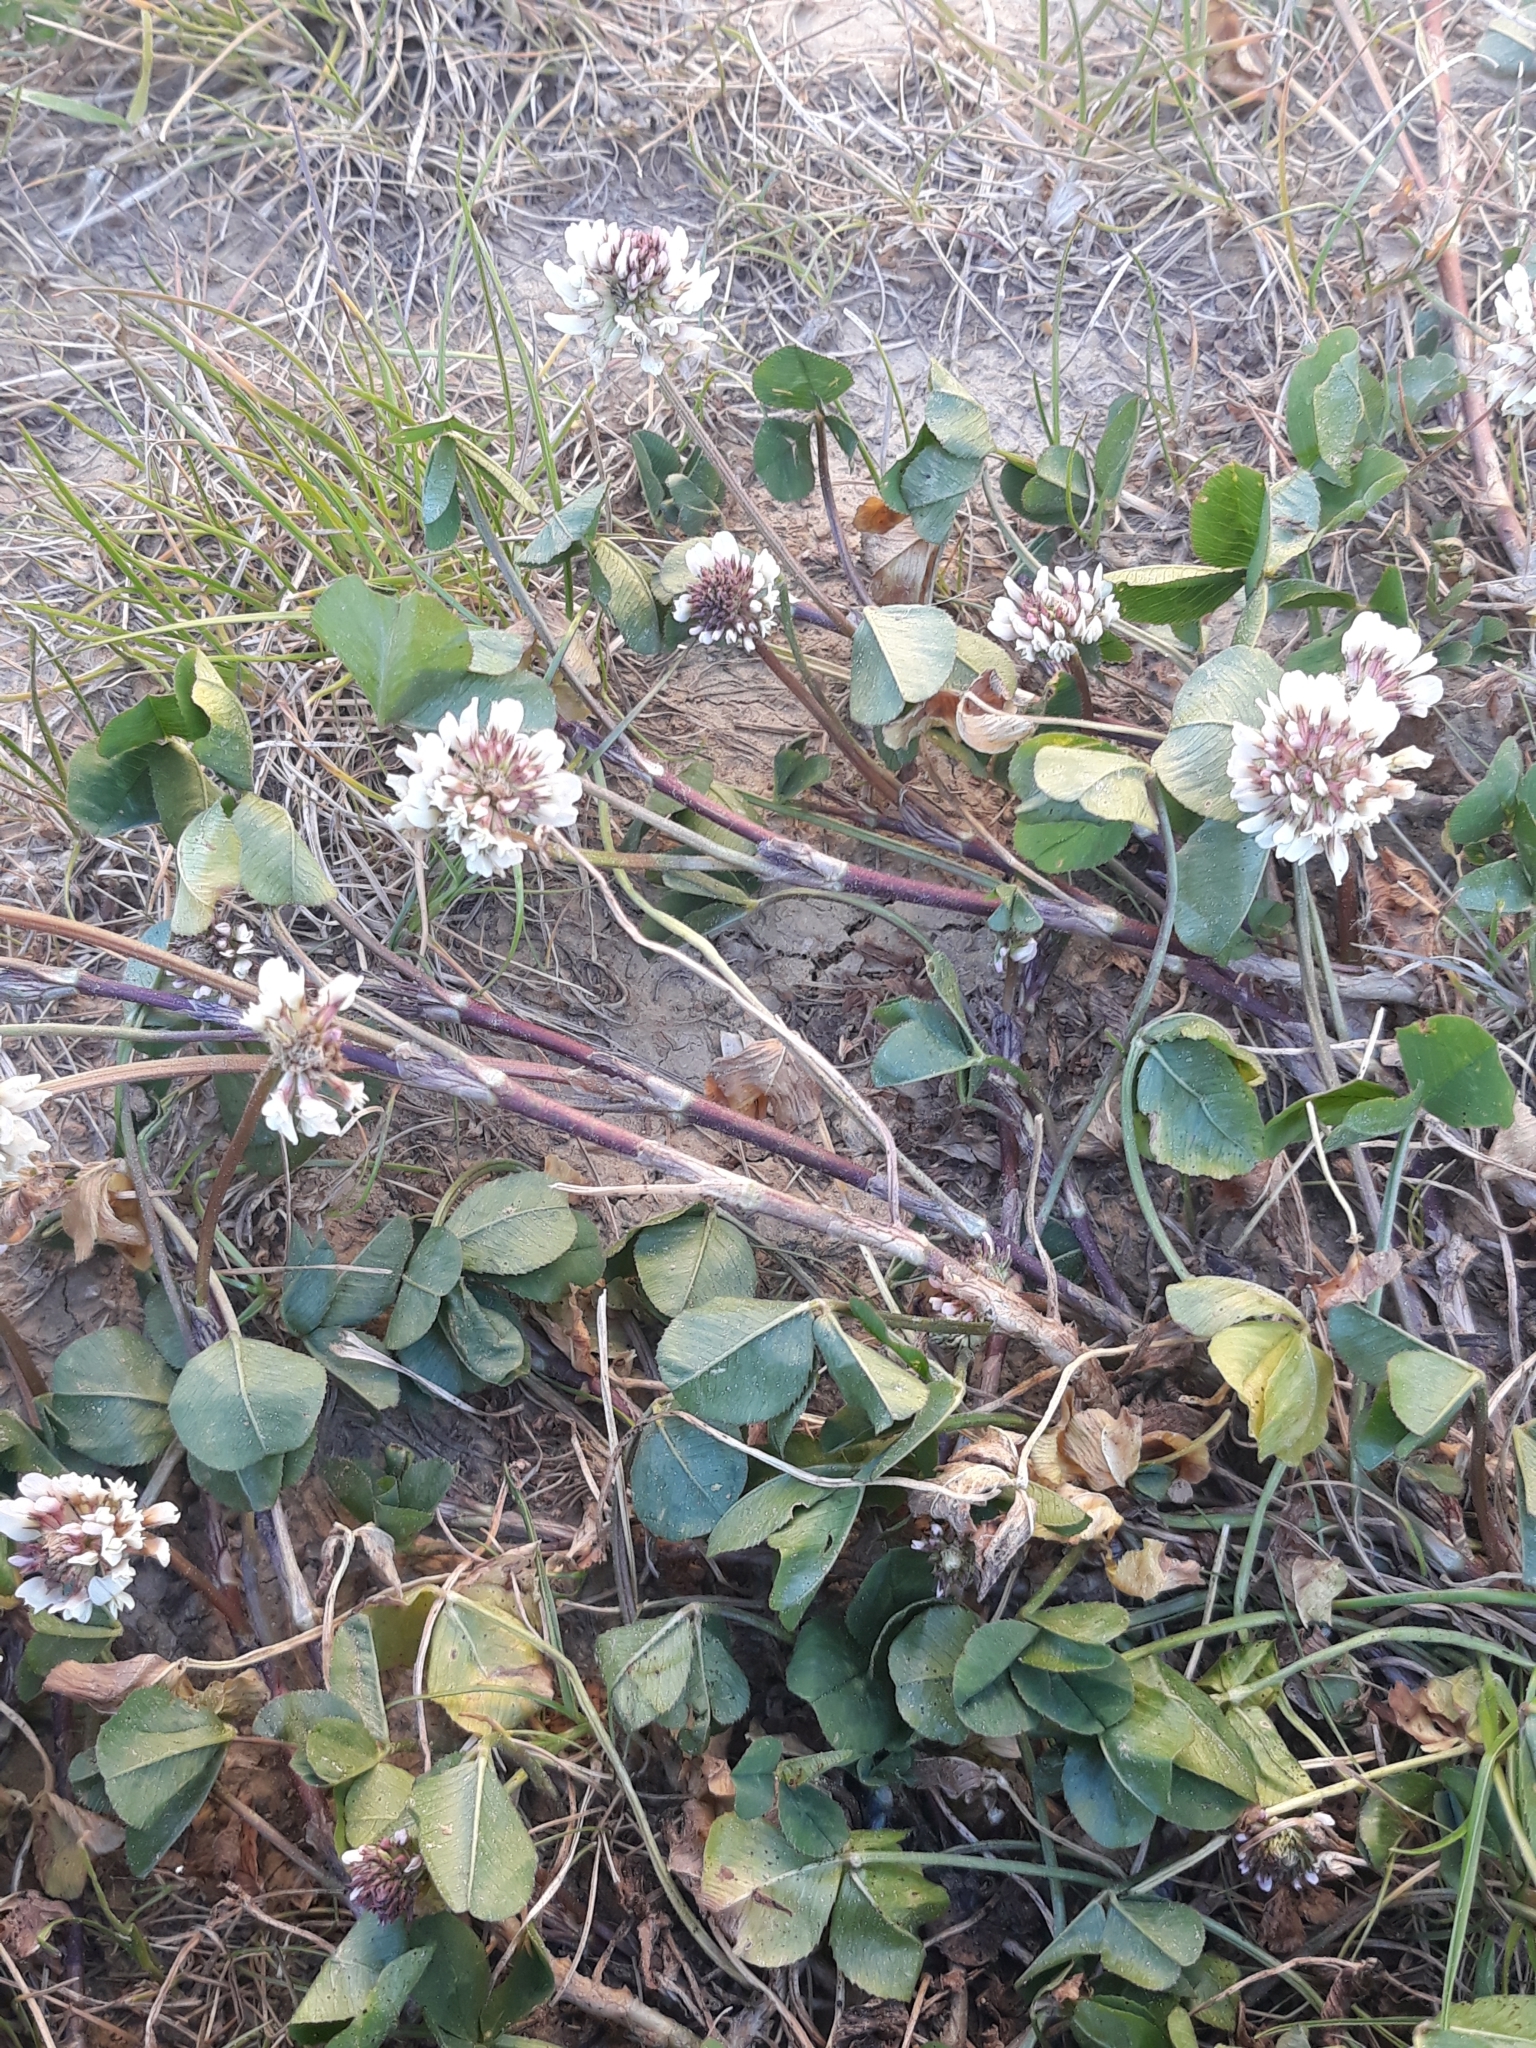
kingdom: Plantae
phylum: Tracheophyta
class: Magnoliopsida
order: Fabales
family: Fabaceae
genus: Trifolium
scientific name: Trifolium repens
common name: White clover
